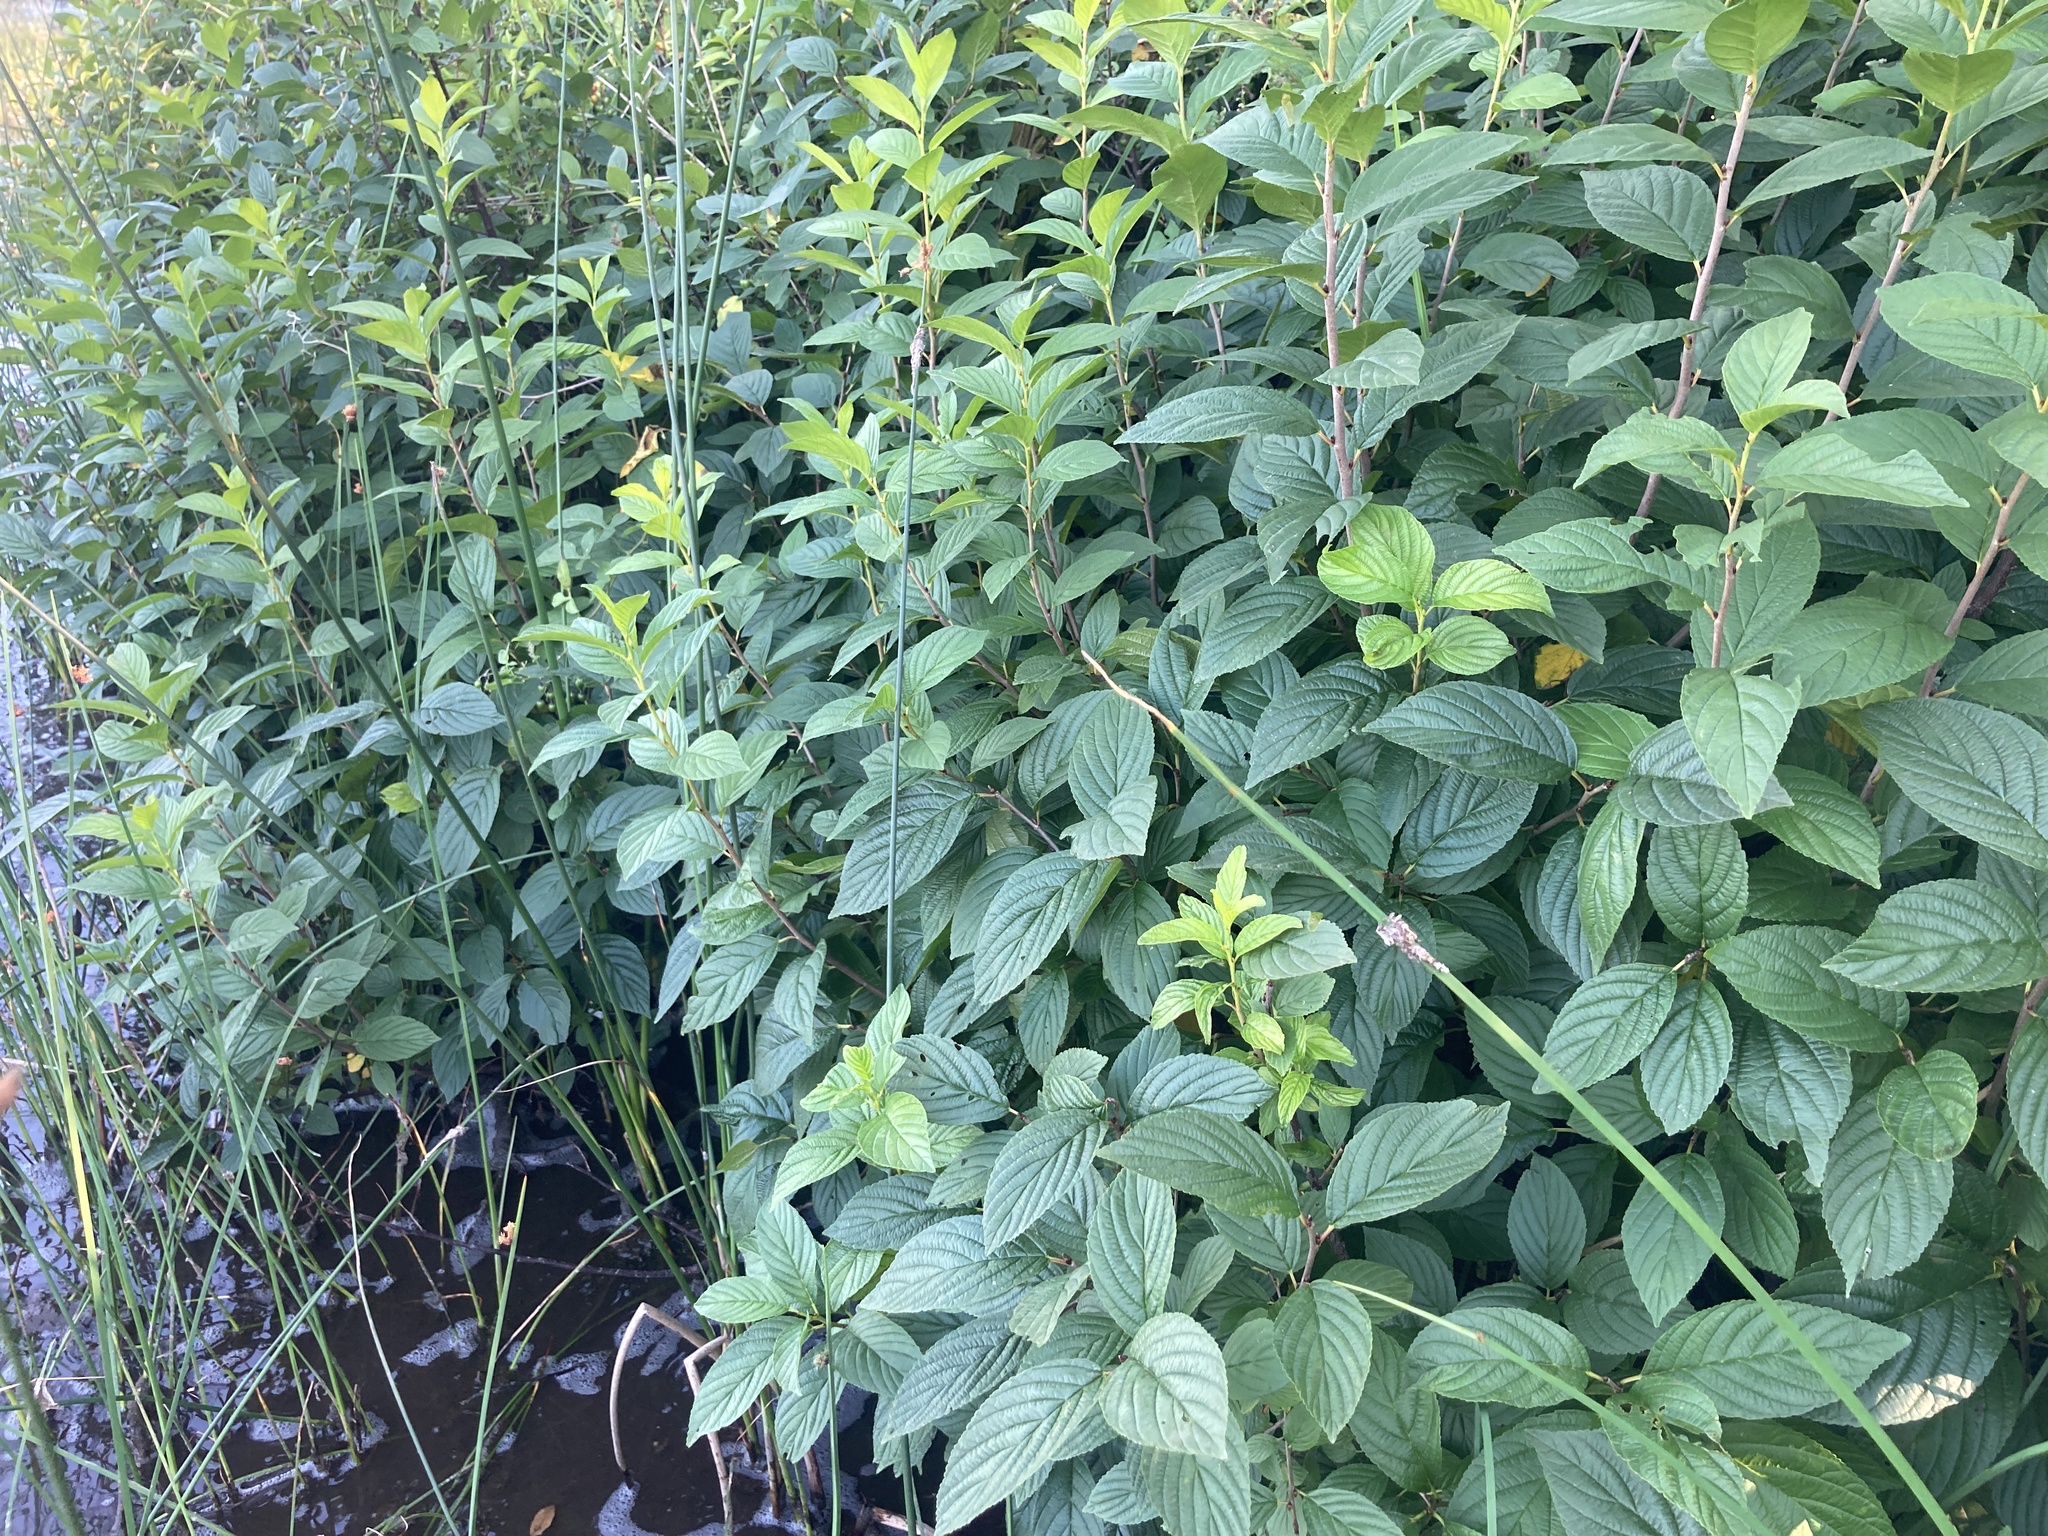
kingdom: Plantae
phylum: Tracheophyta
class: Magnoliopsida
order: Rosales
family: Rhamnaceae
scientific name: Rhamnaceae
